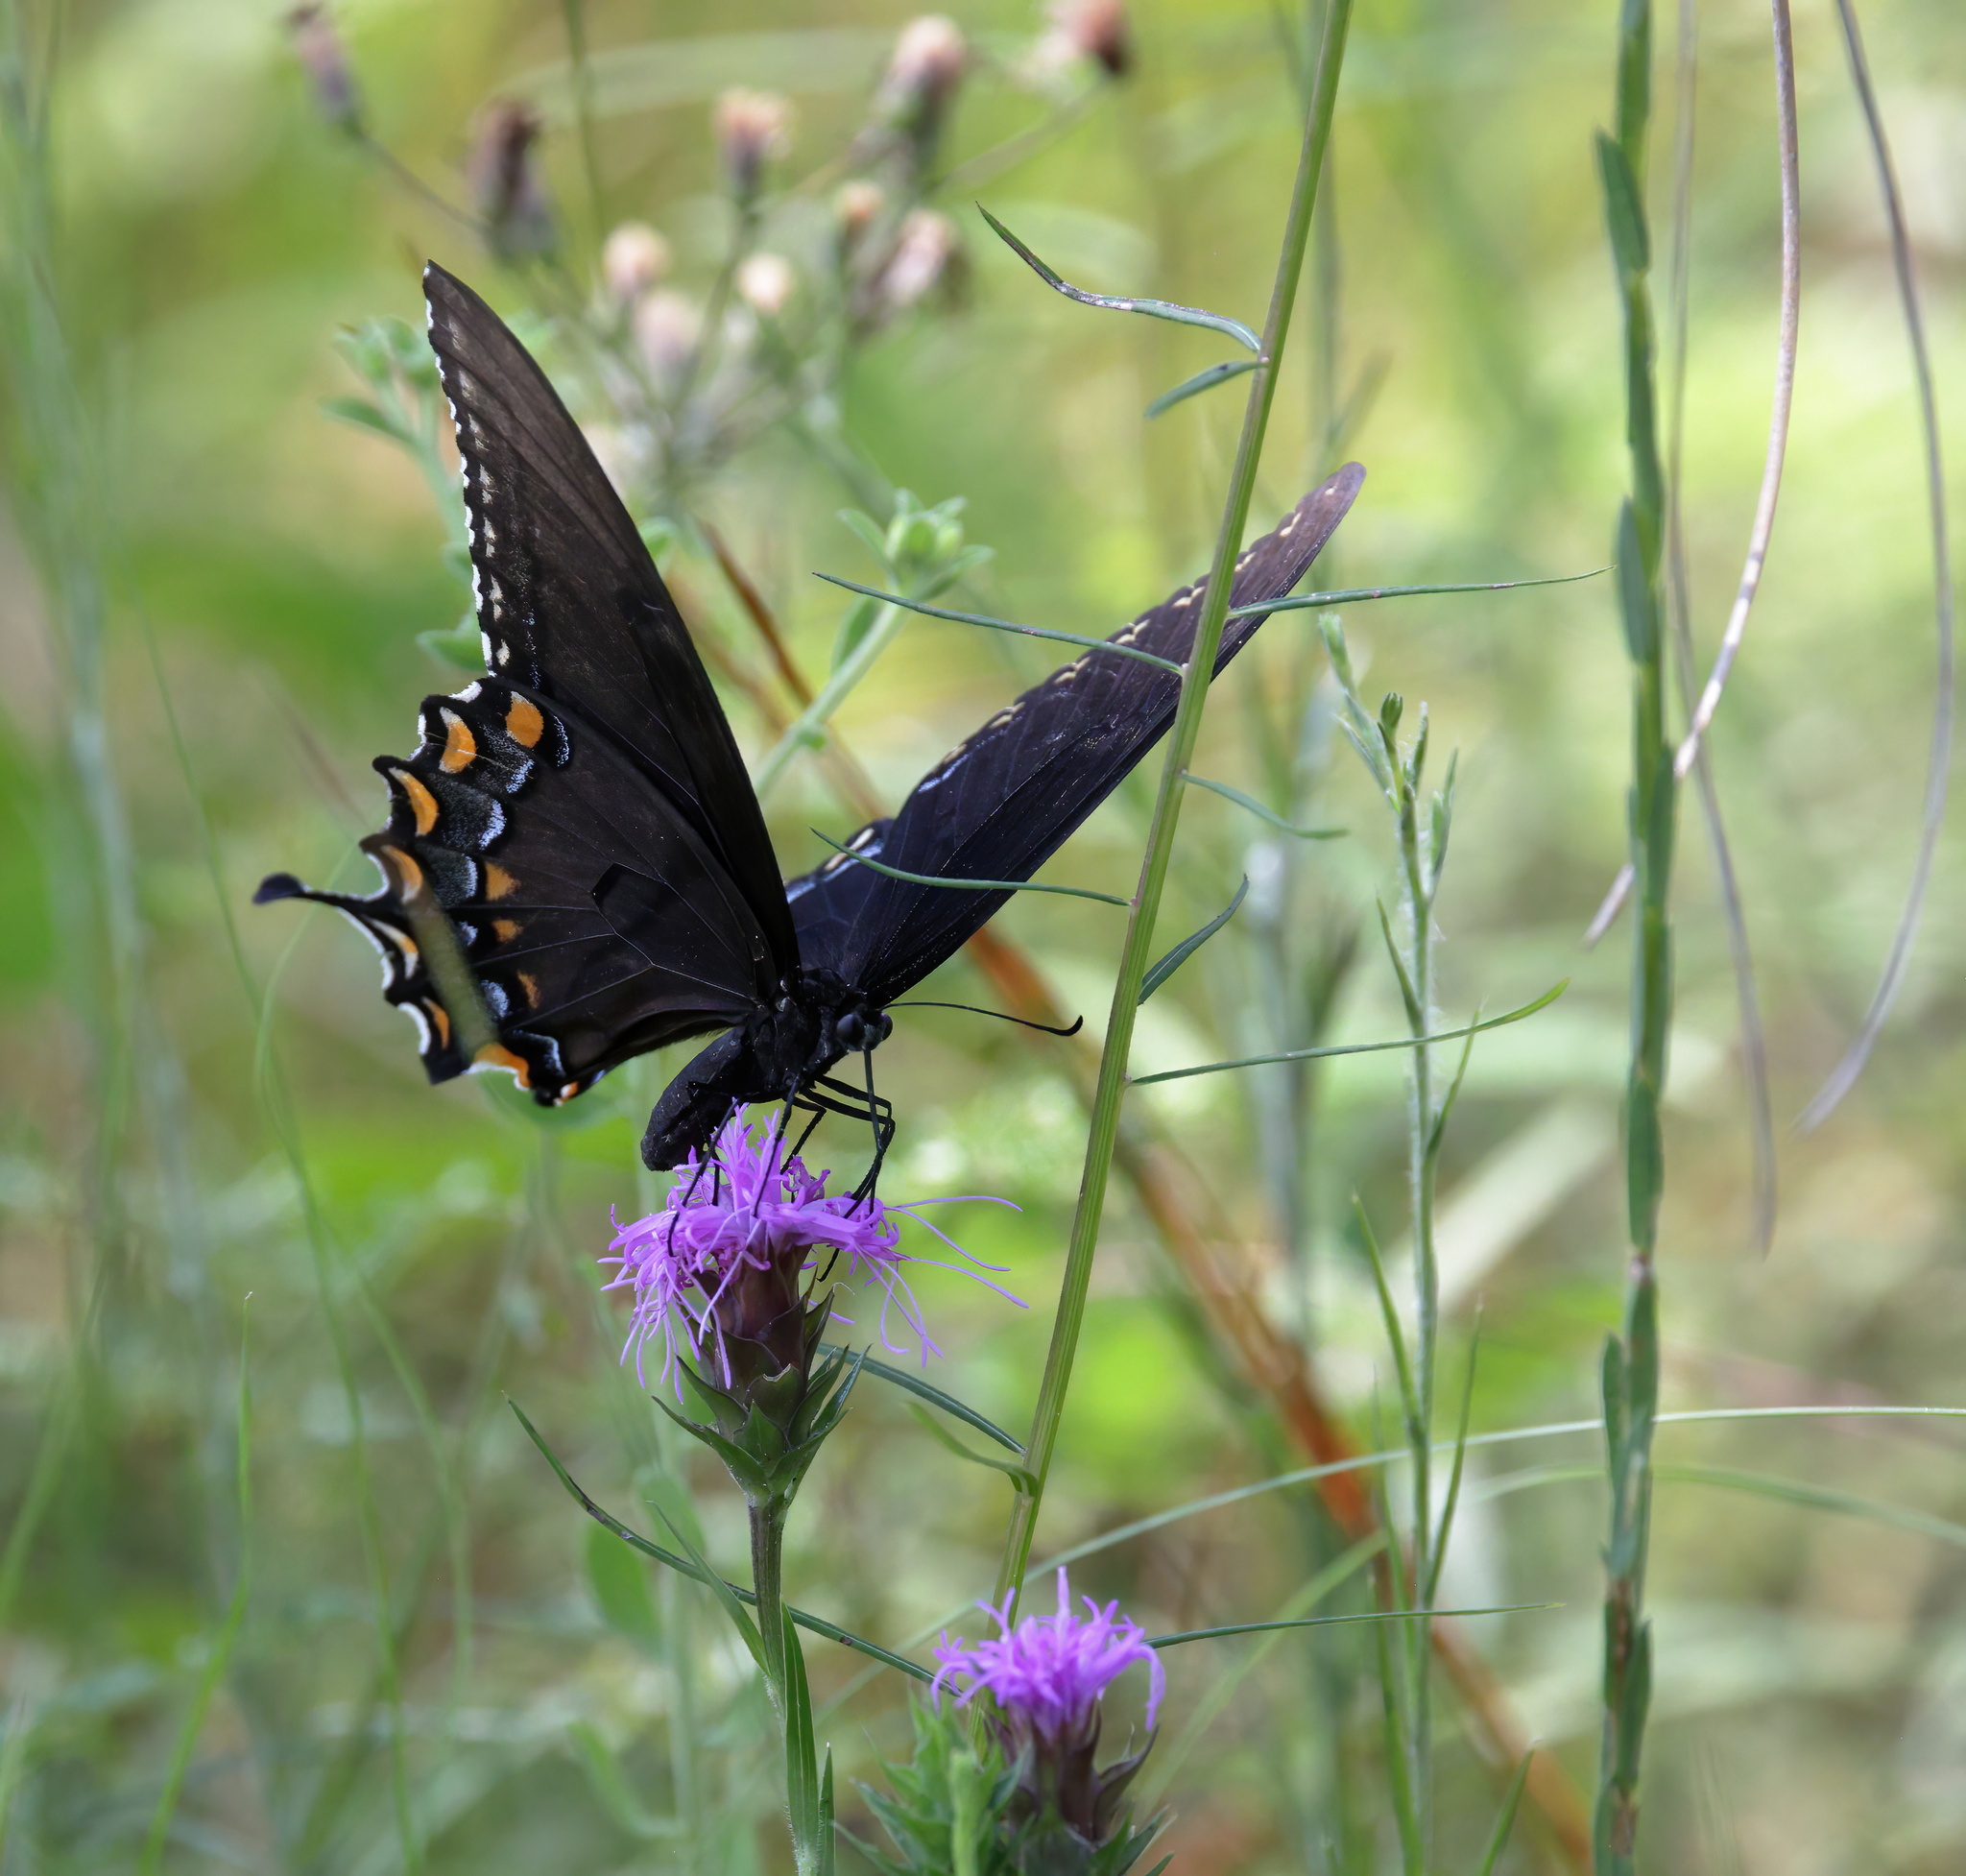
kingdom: Animalia
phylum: Arthropoda
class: Insecta
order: Lepidoptera
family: Papilionidae
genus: Papilio
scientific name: Papilio glaucus
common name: Tiger swallowtail
